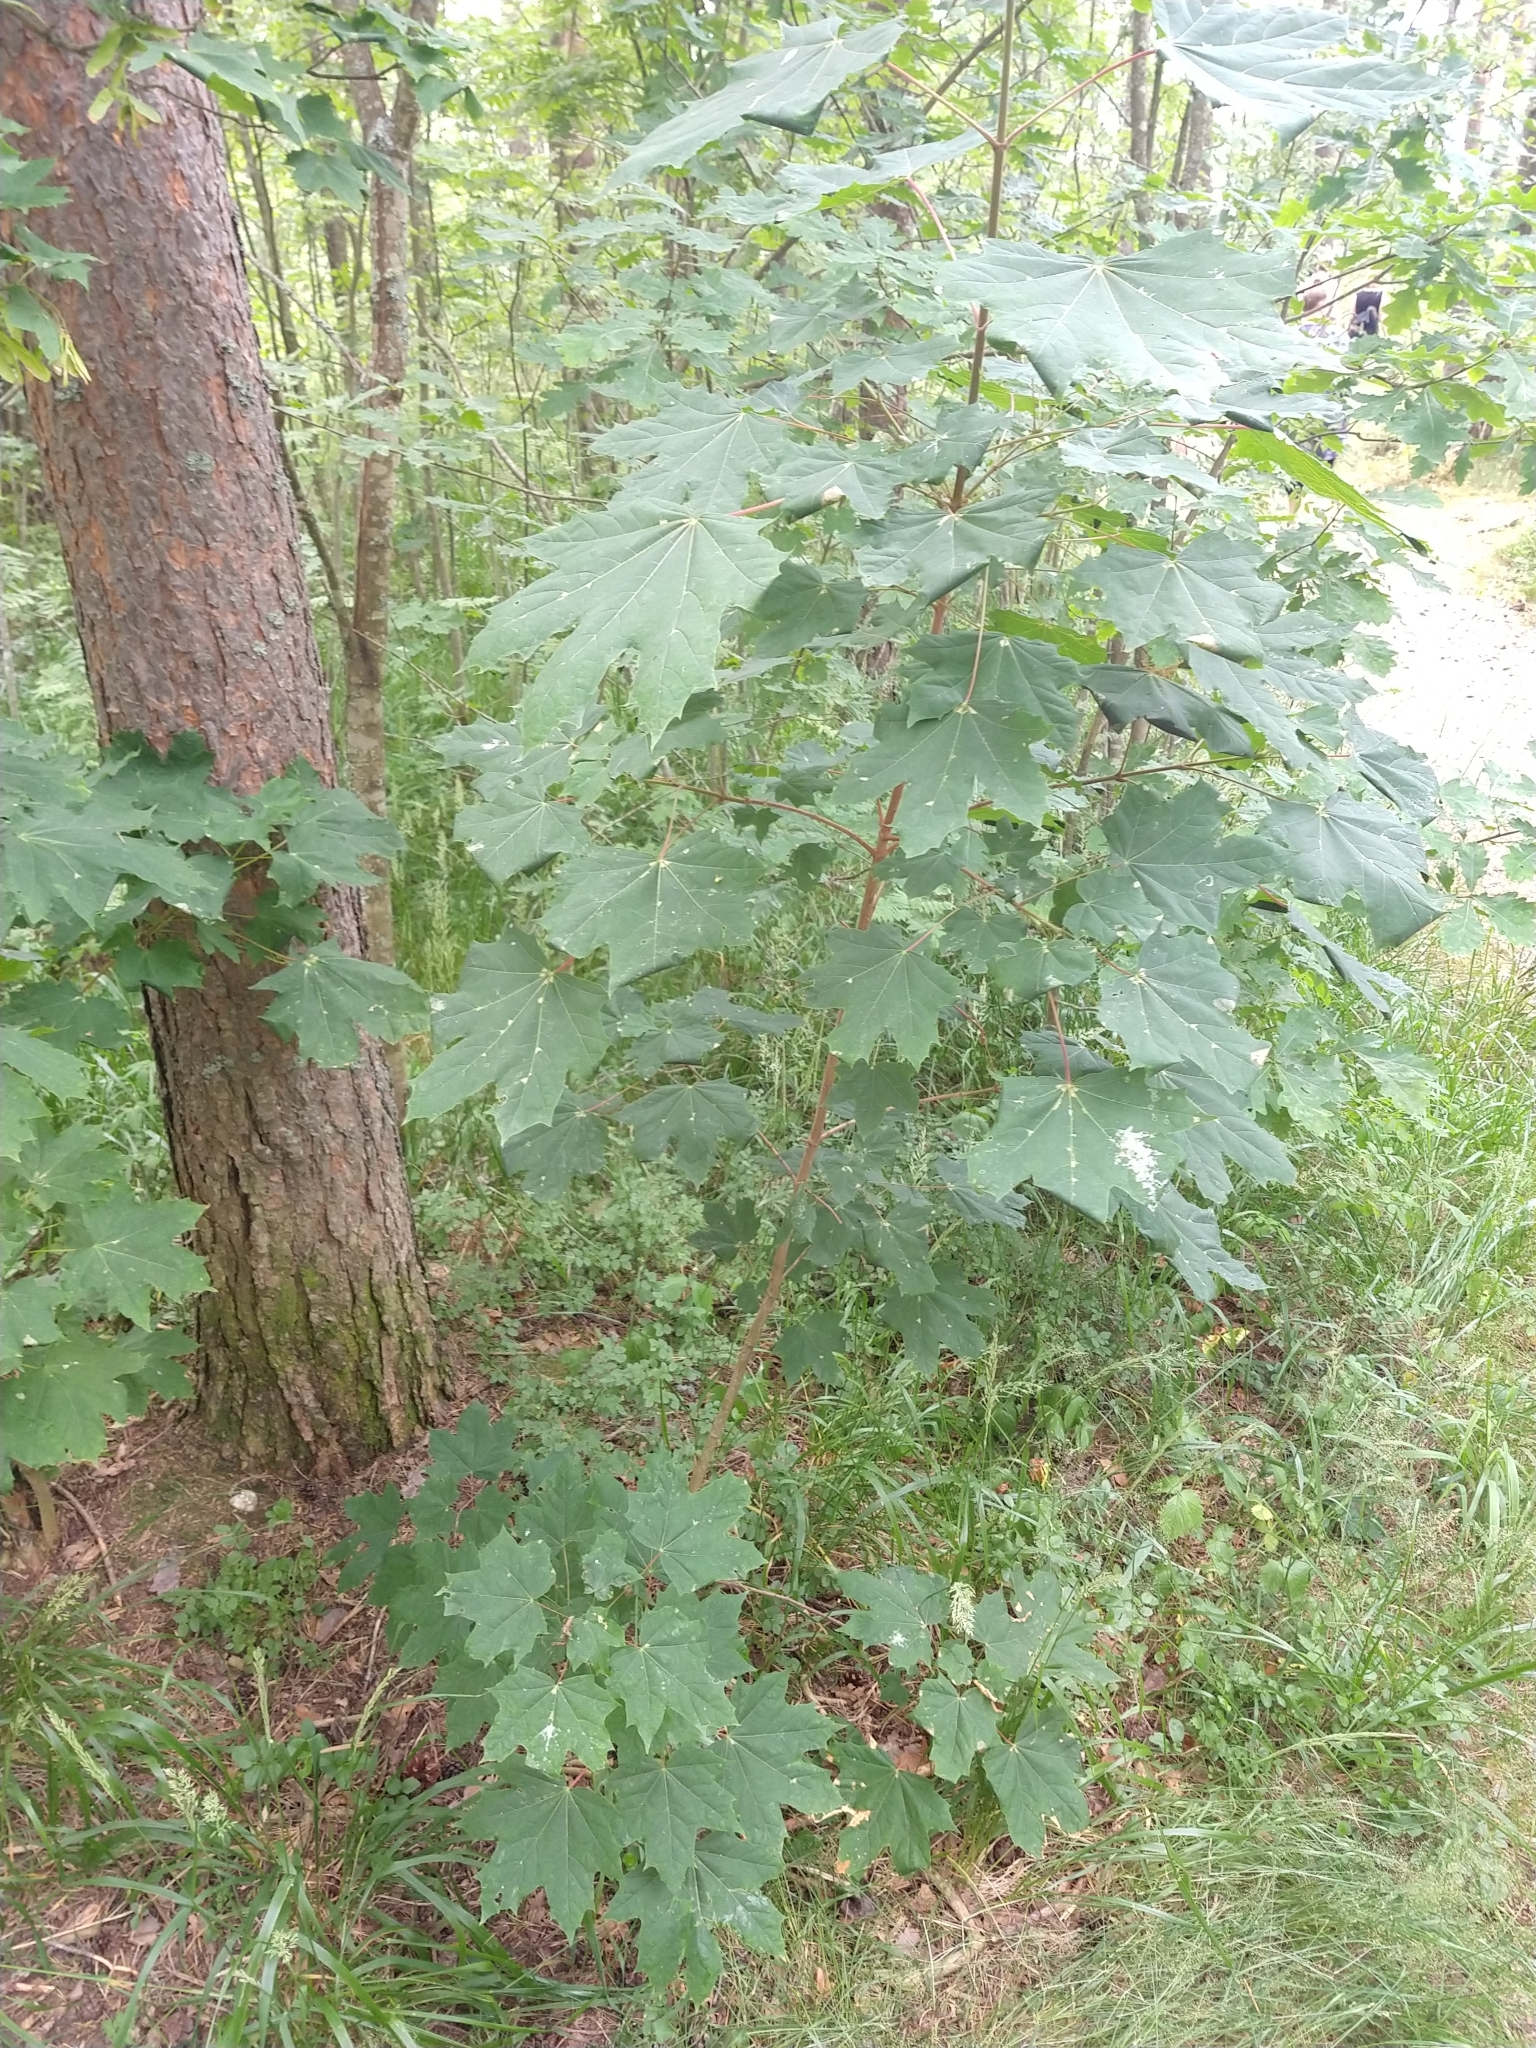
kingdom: Plantae
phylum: Tracheophyta
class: Magnoliopsida
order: Sapindales
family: Sapindaceae
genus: Acer
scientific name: Acer platanoides
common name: Norway maple
